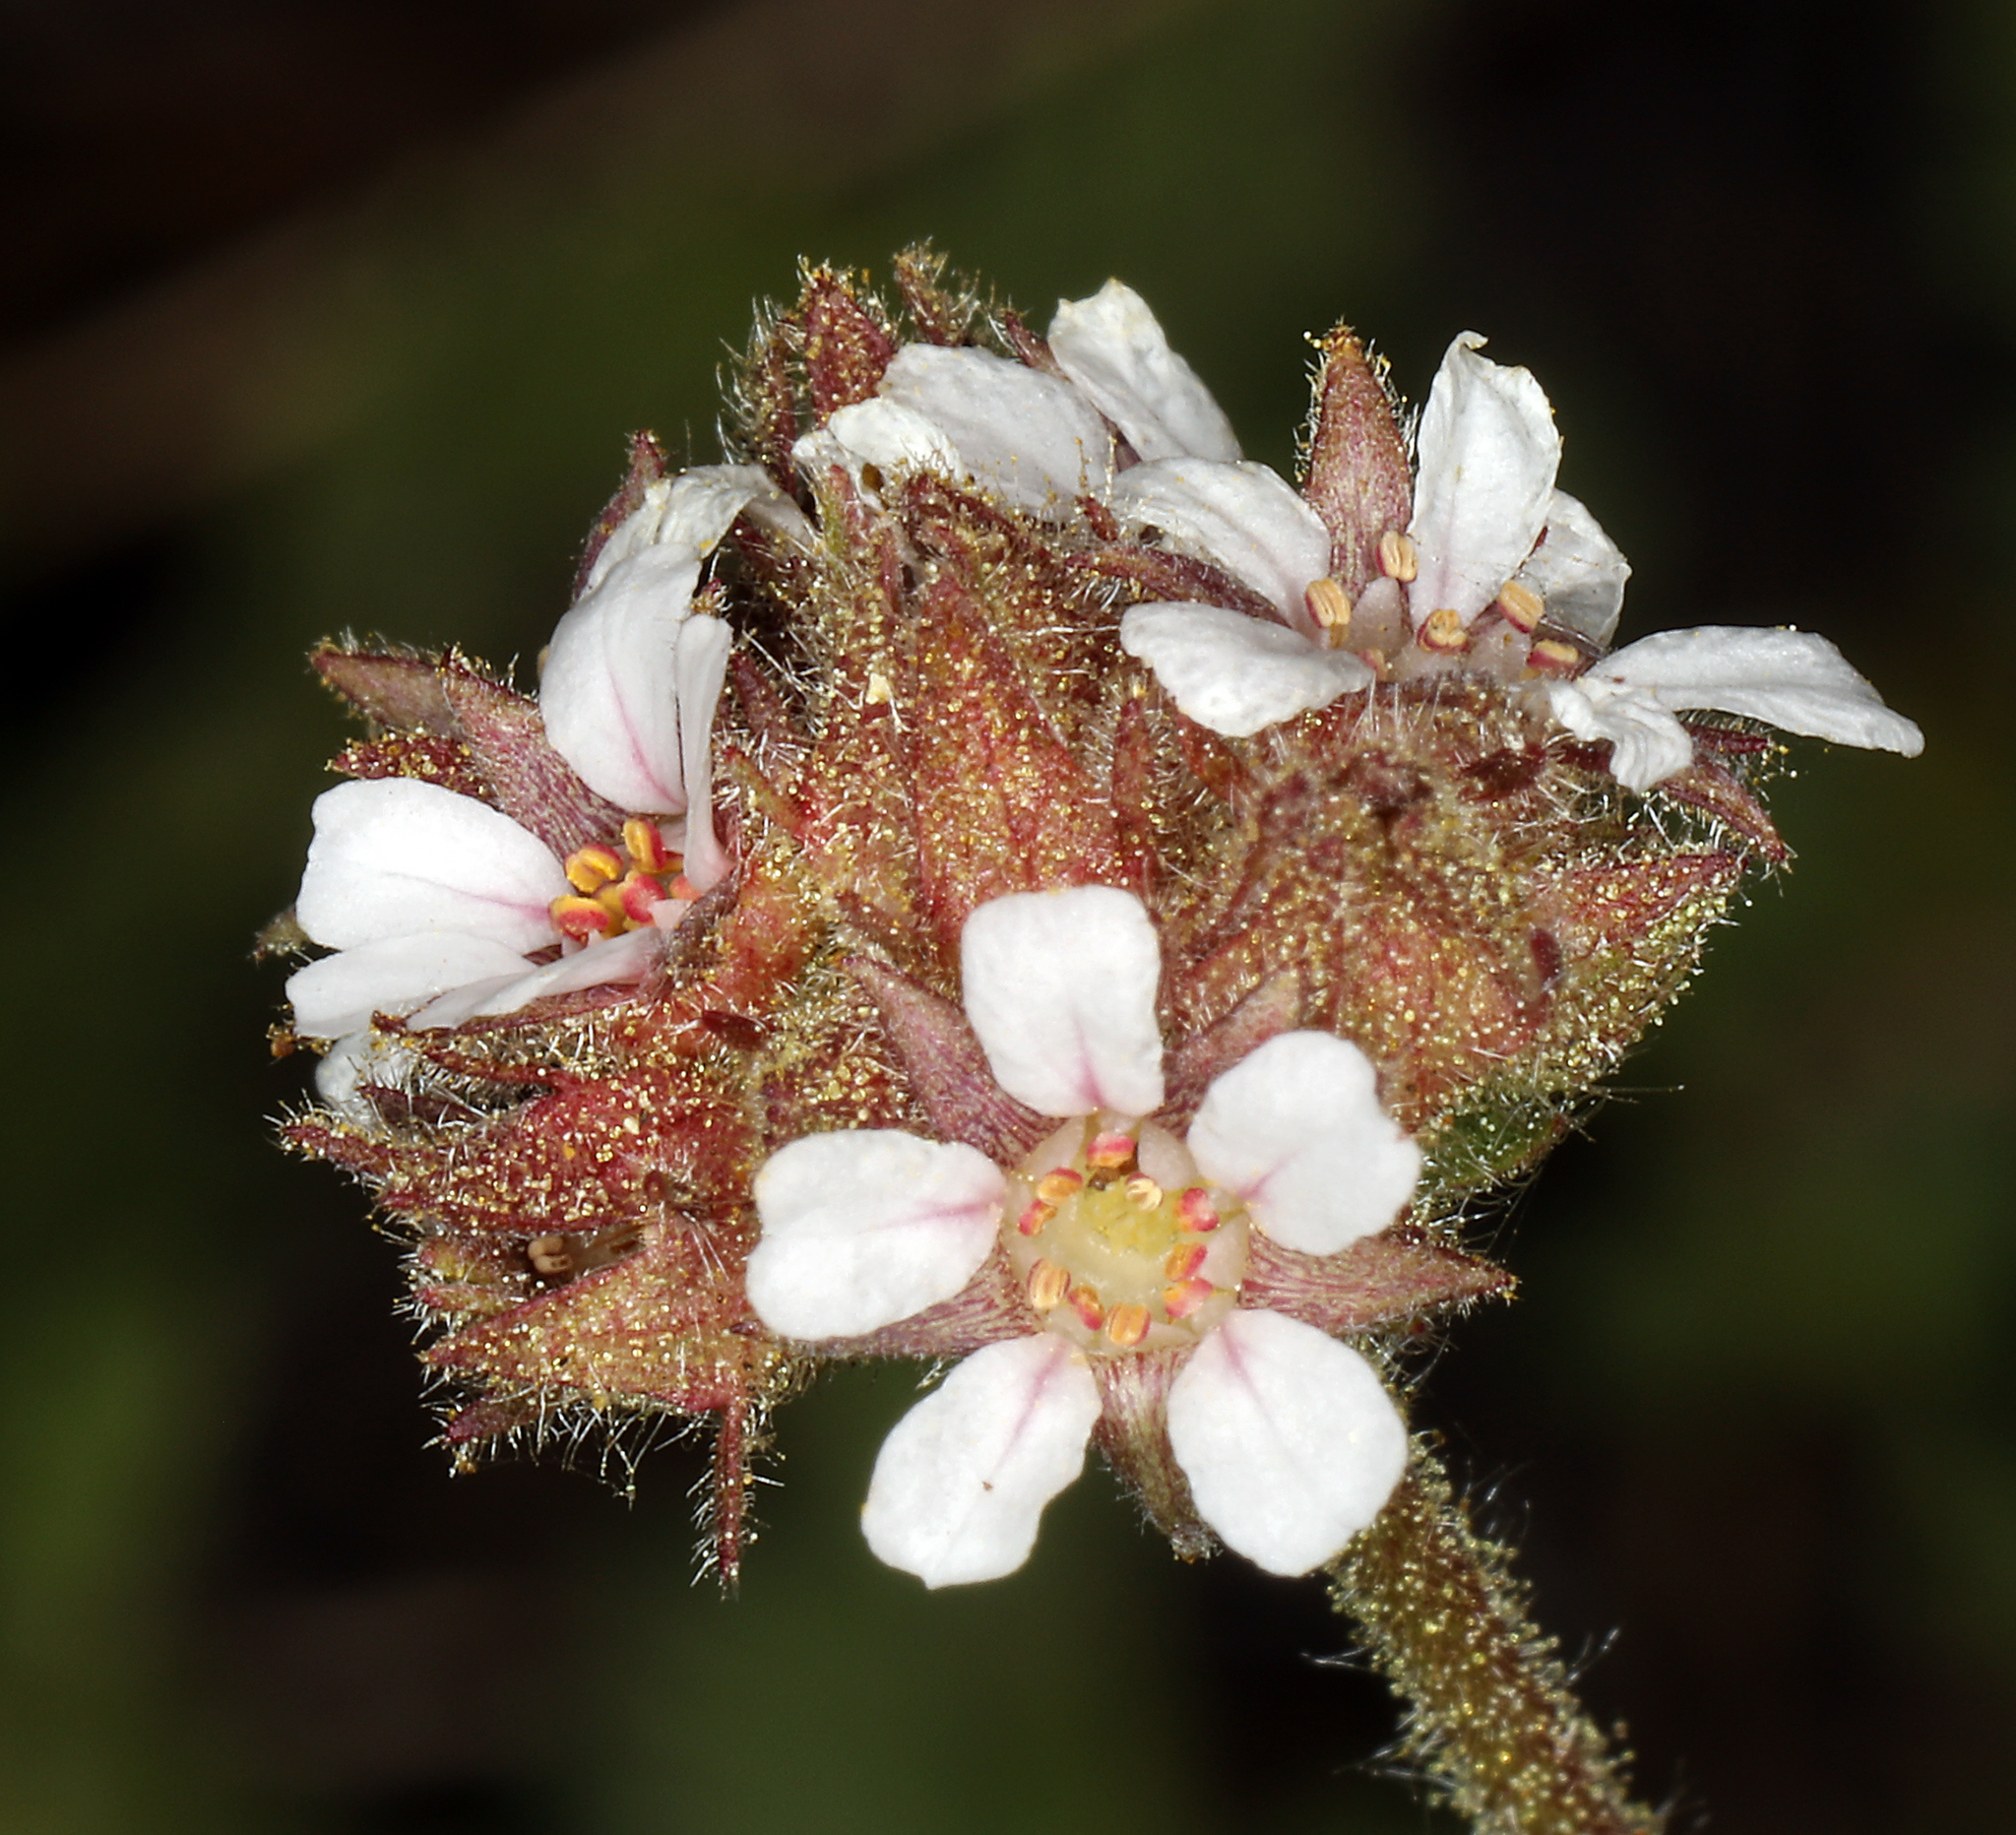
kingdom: Plantae
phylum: Tracheophyta
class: Magnoliopsida
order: Rosales
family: Rosaceae
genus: Potentilla
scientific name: Potentilla douglasii
